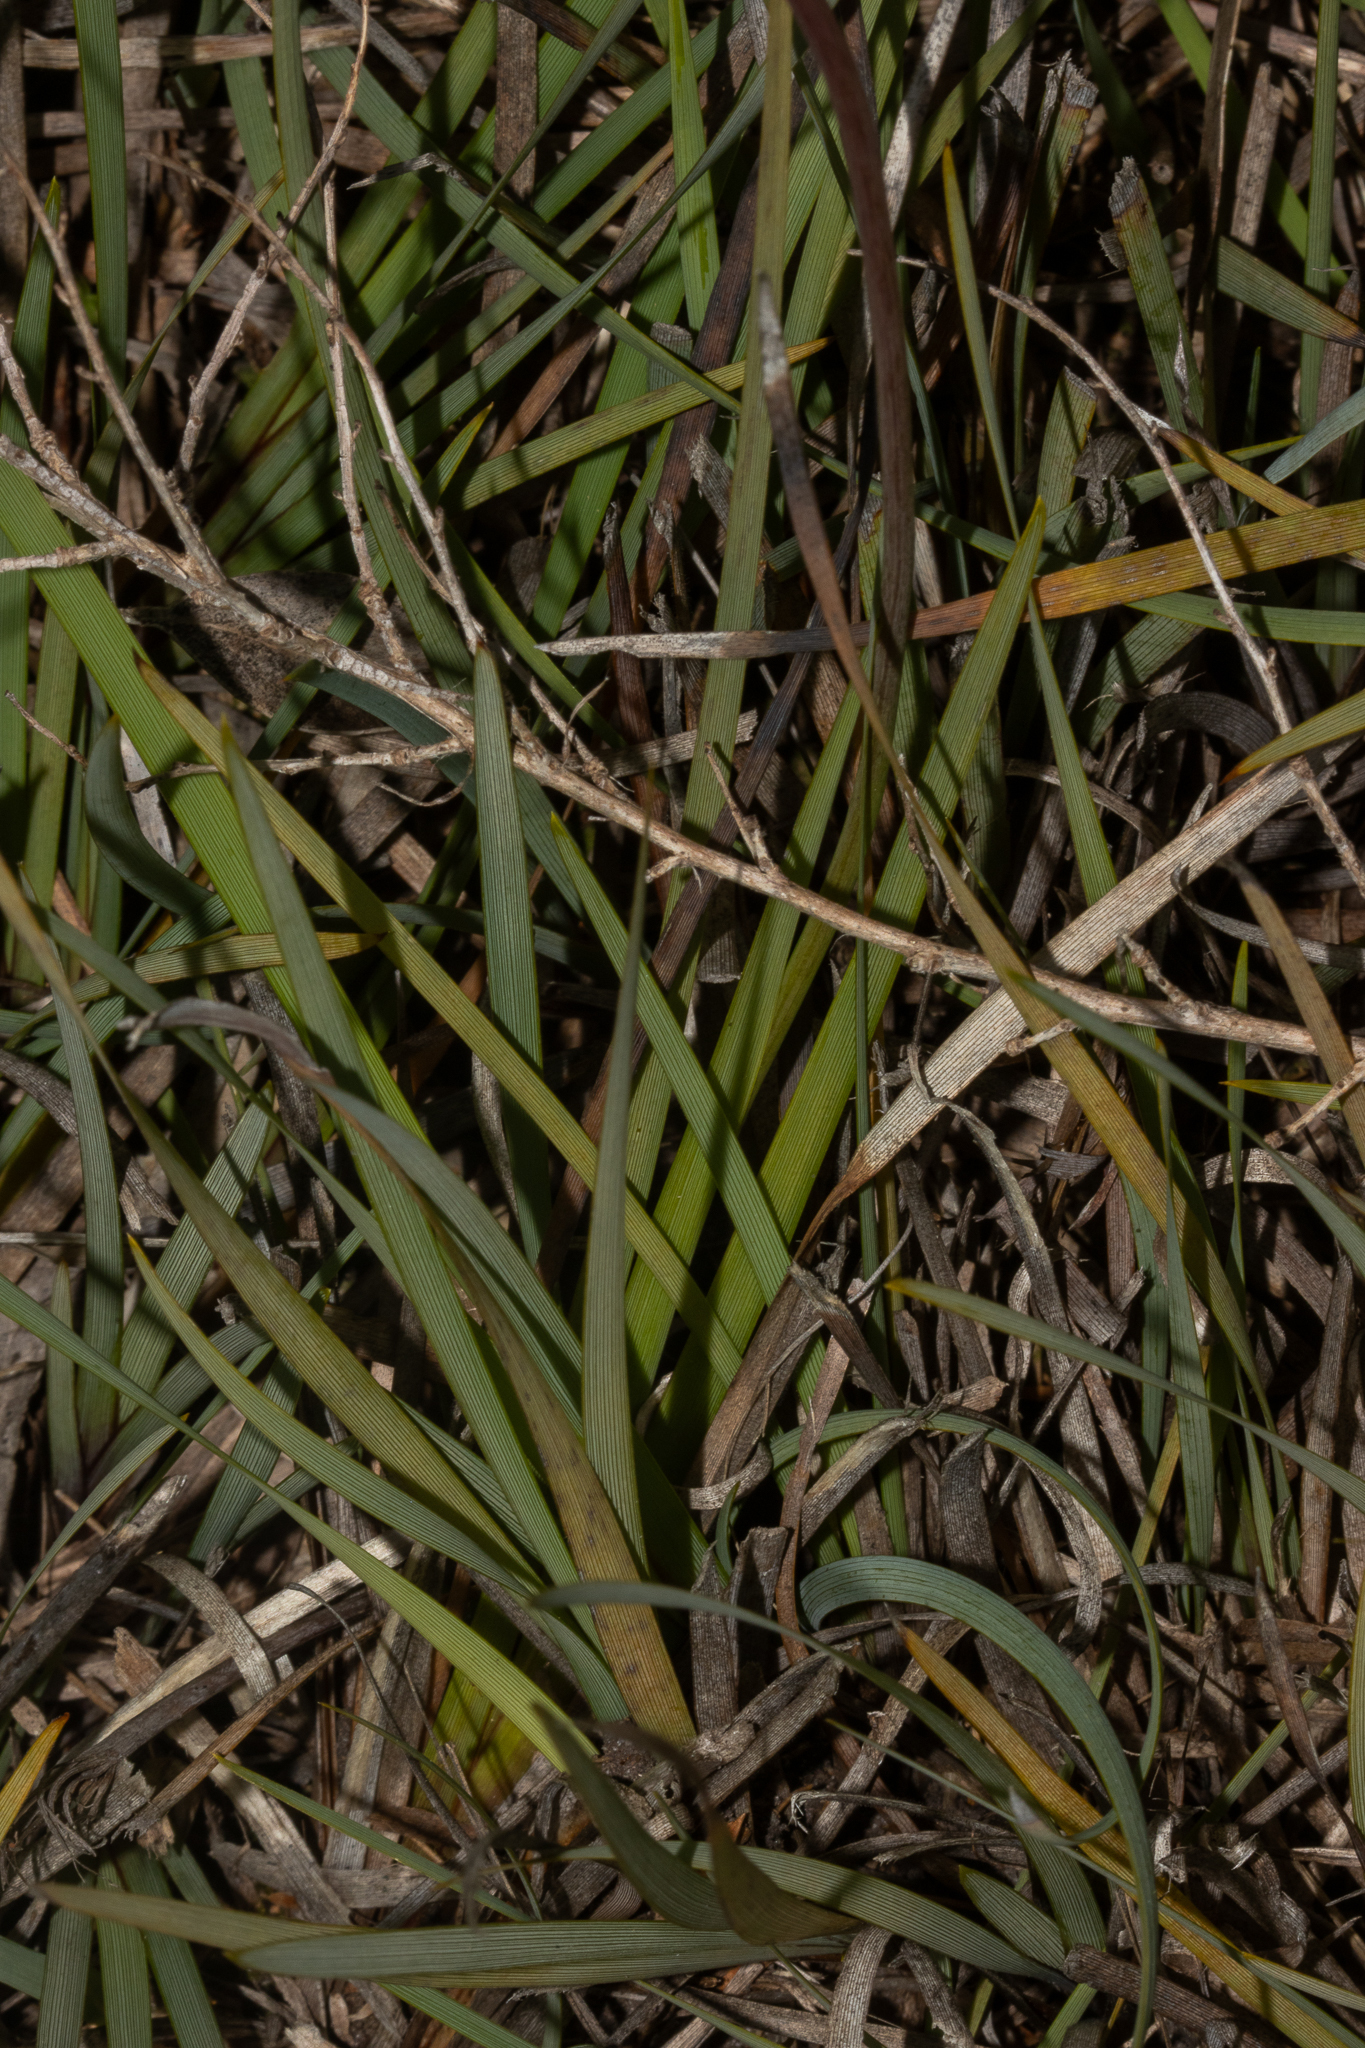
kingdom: Plantae
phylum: Tracheophyta
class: Liliopsida
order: Asparagales
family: Iridaceae
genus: Patersonia
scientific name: Patersonia occidentalis
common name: Long purple-flag
